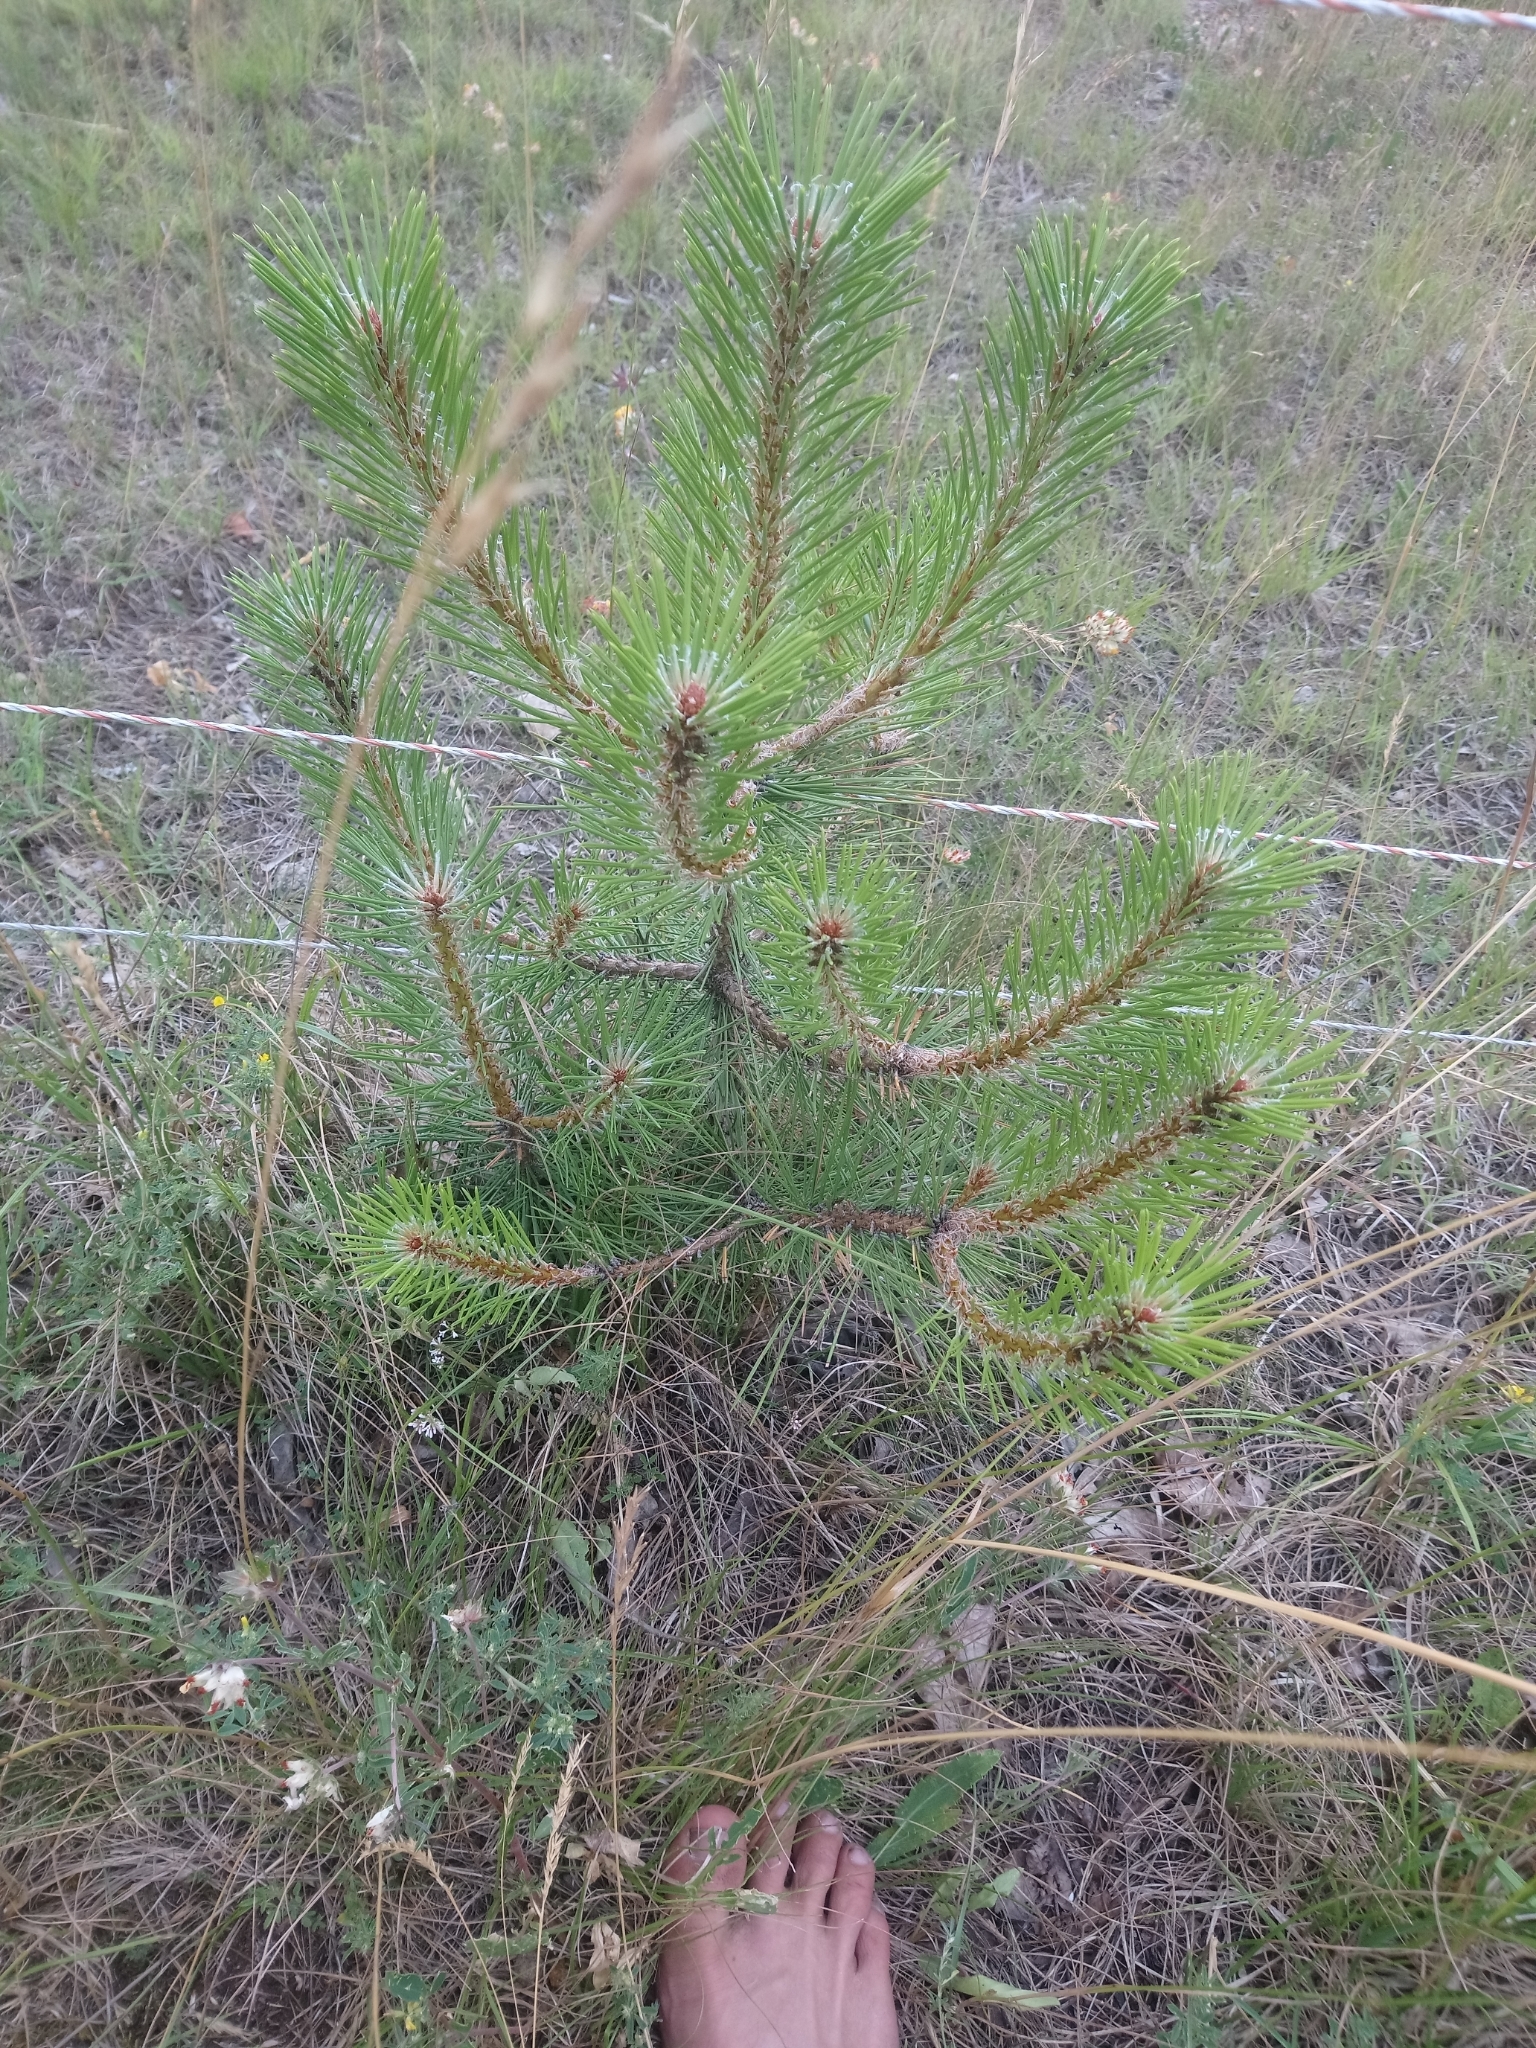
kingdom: Plantae
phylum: Tracheophyta
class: Pinopsida
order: Pinales
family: Pinaceae
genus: Pinus
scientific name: Pinus nigra
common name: Austrian pine
